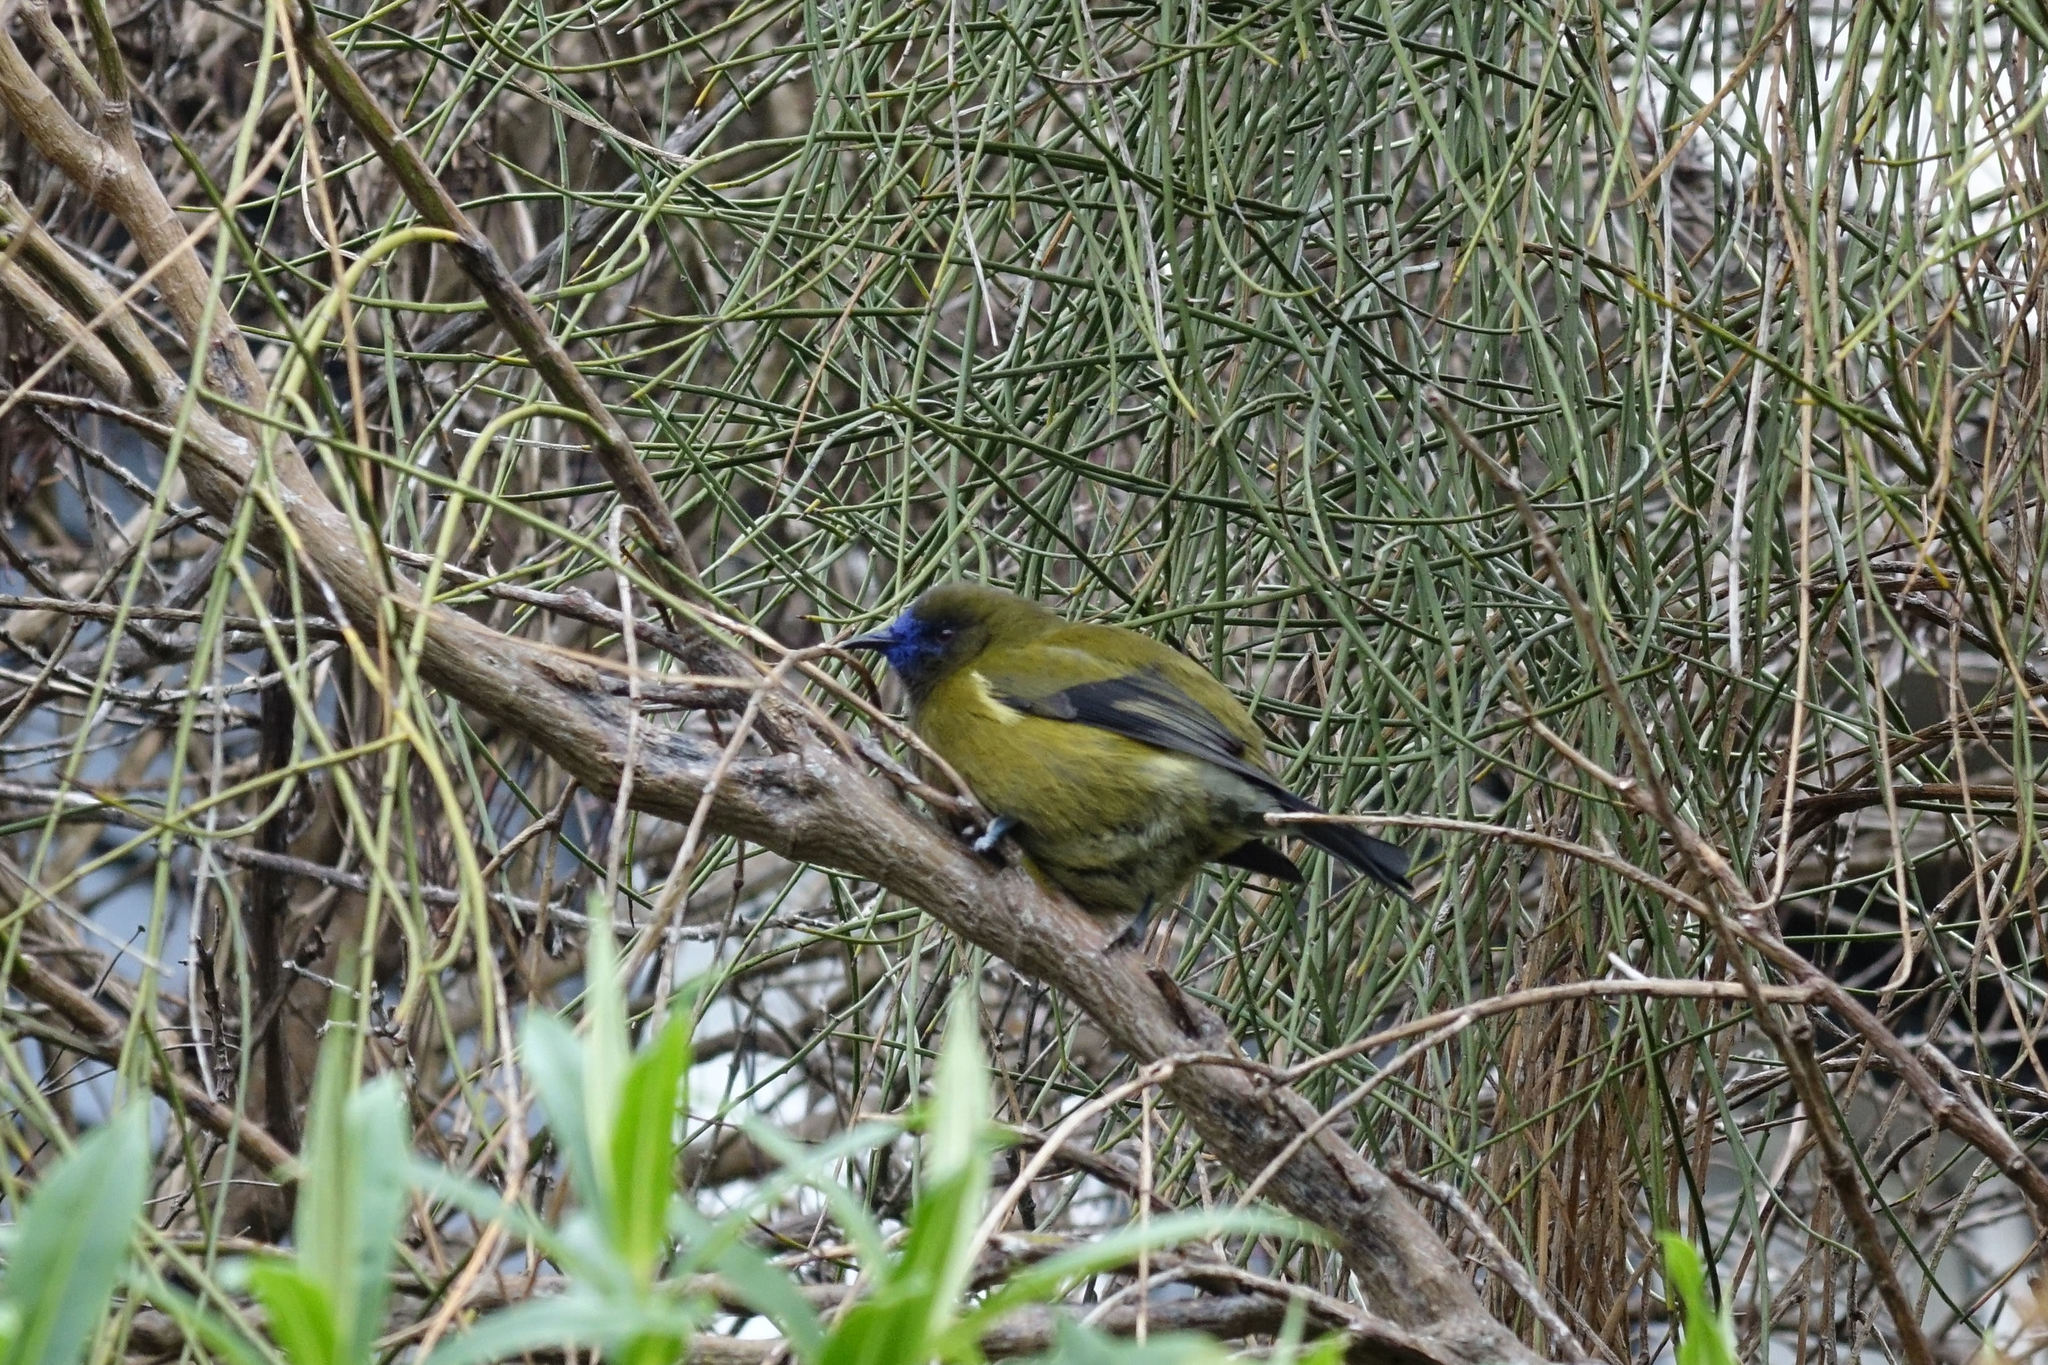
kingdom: Animalia
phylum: Chordata
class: Aves
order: Passeriformes
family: Meliphagidae
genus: Anthornis
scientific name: Anthornis melanura
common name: New zealand bellbird
